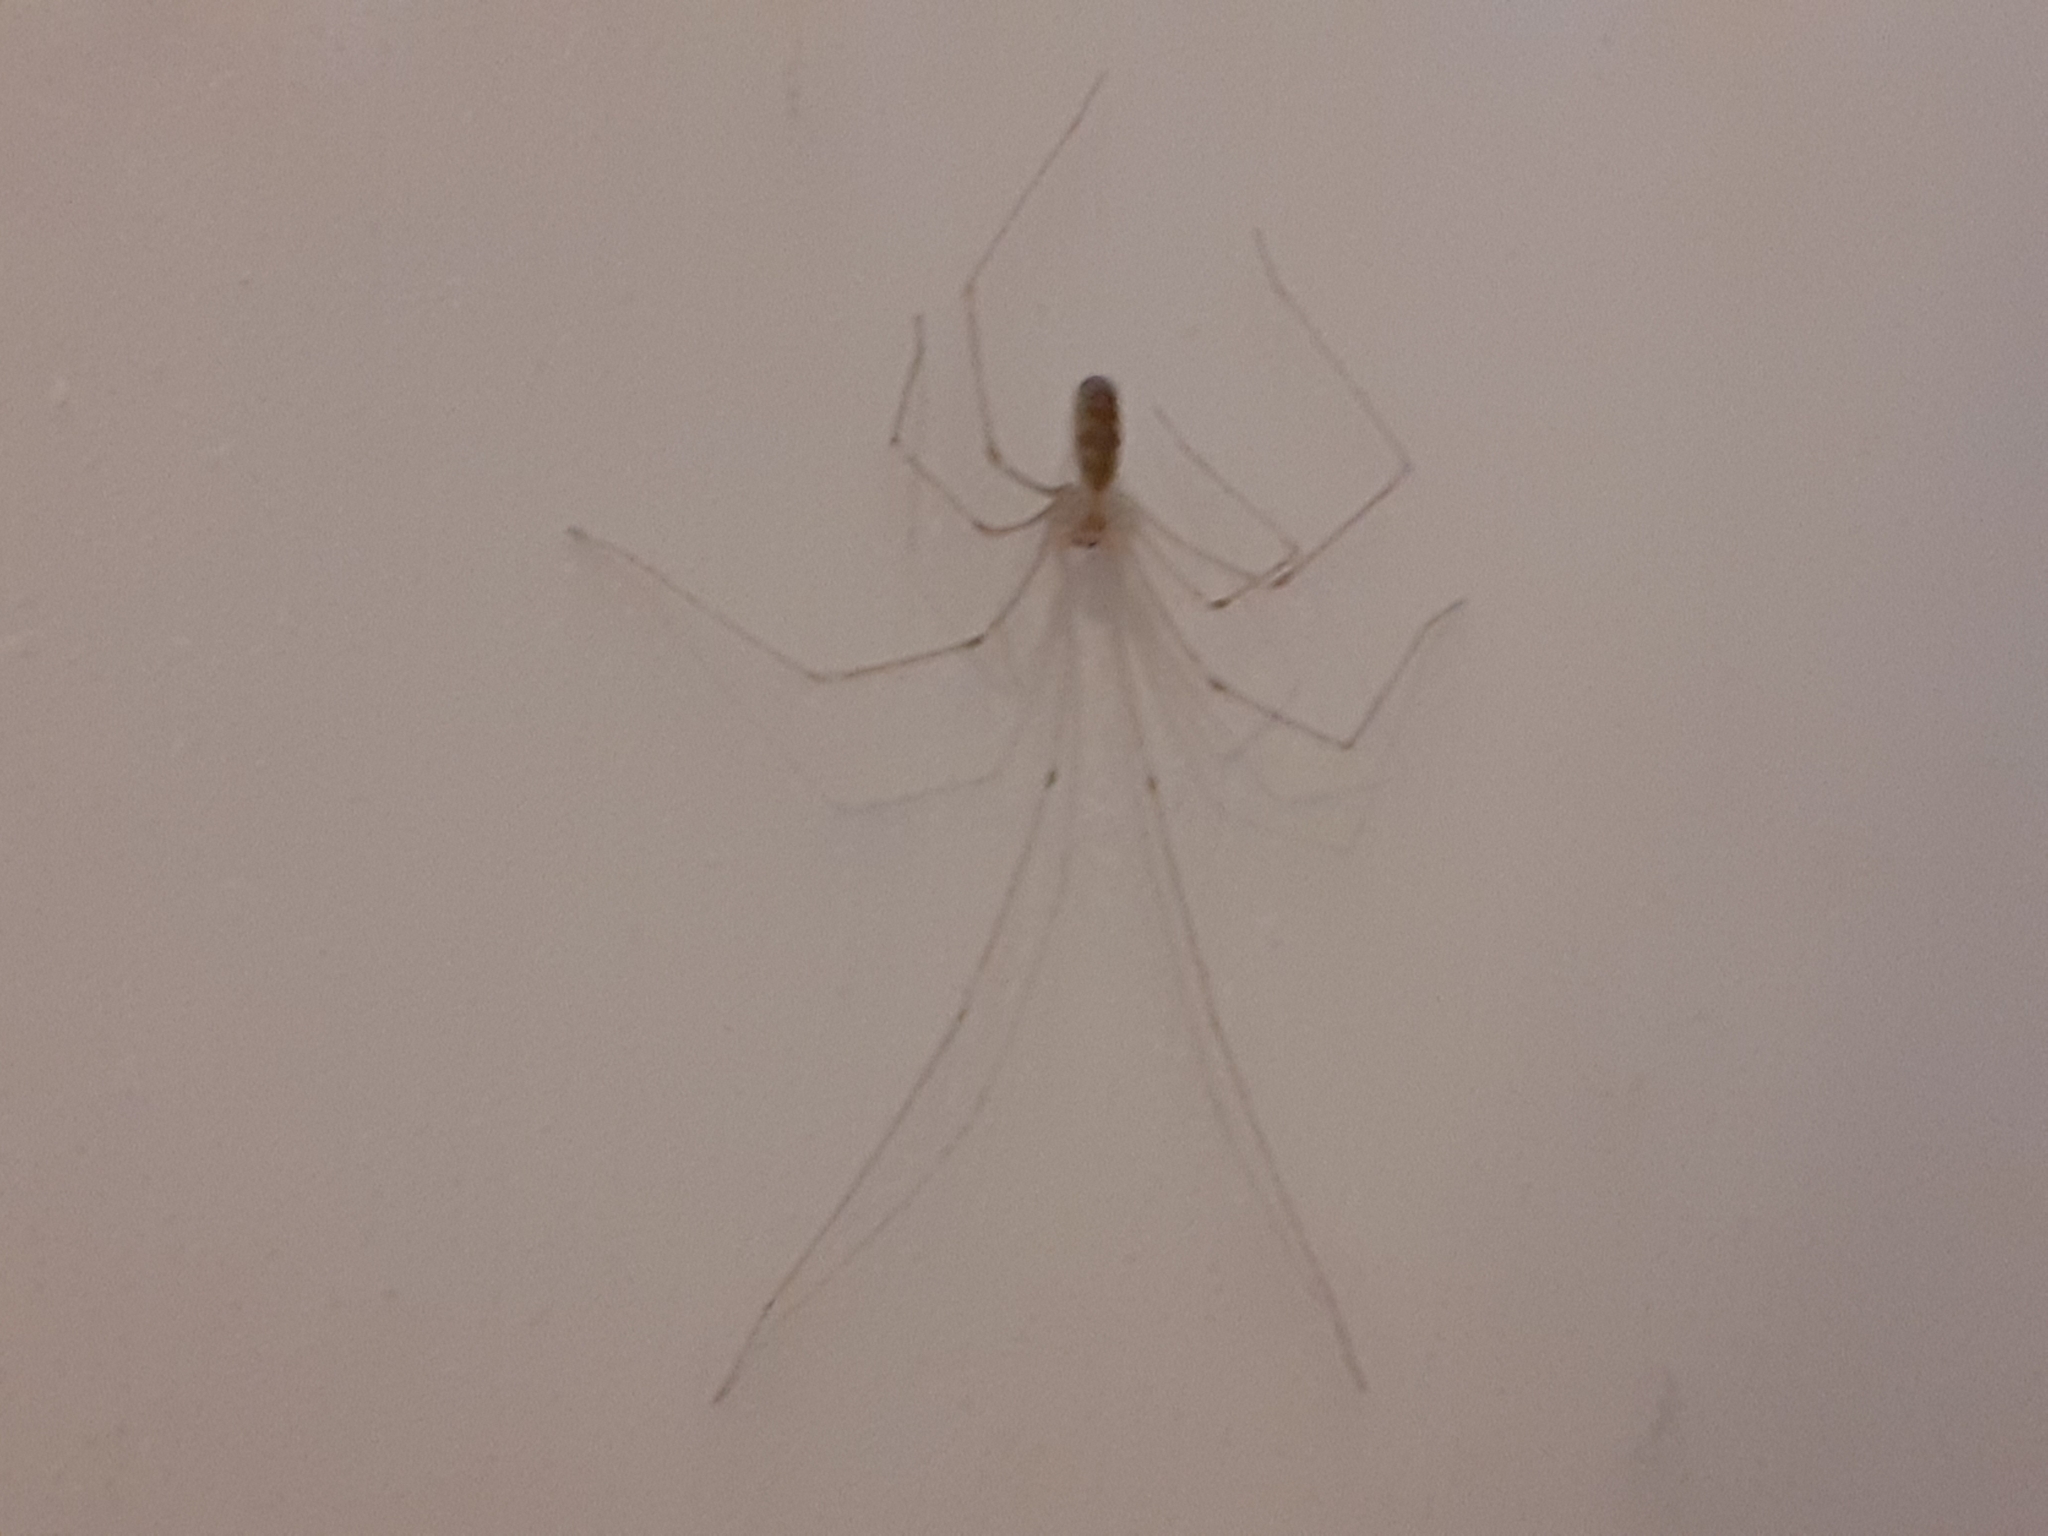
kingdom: Animalia
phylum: Arthropoda
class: Arachnida
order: Araneae
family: Pholcidae
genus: Pholcus
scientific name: Pholcus phalangioides
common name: Longbodied cellar spider
